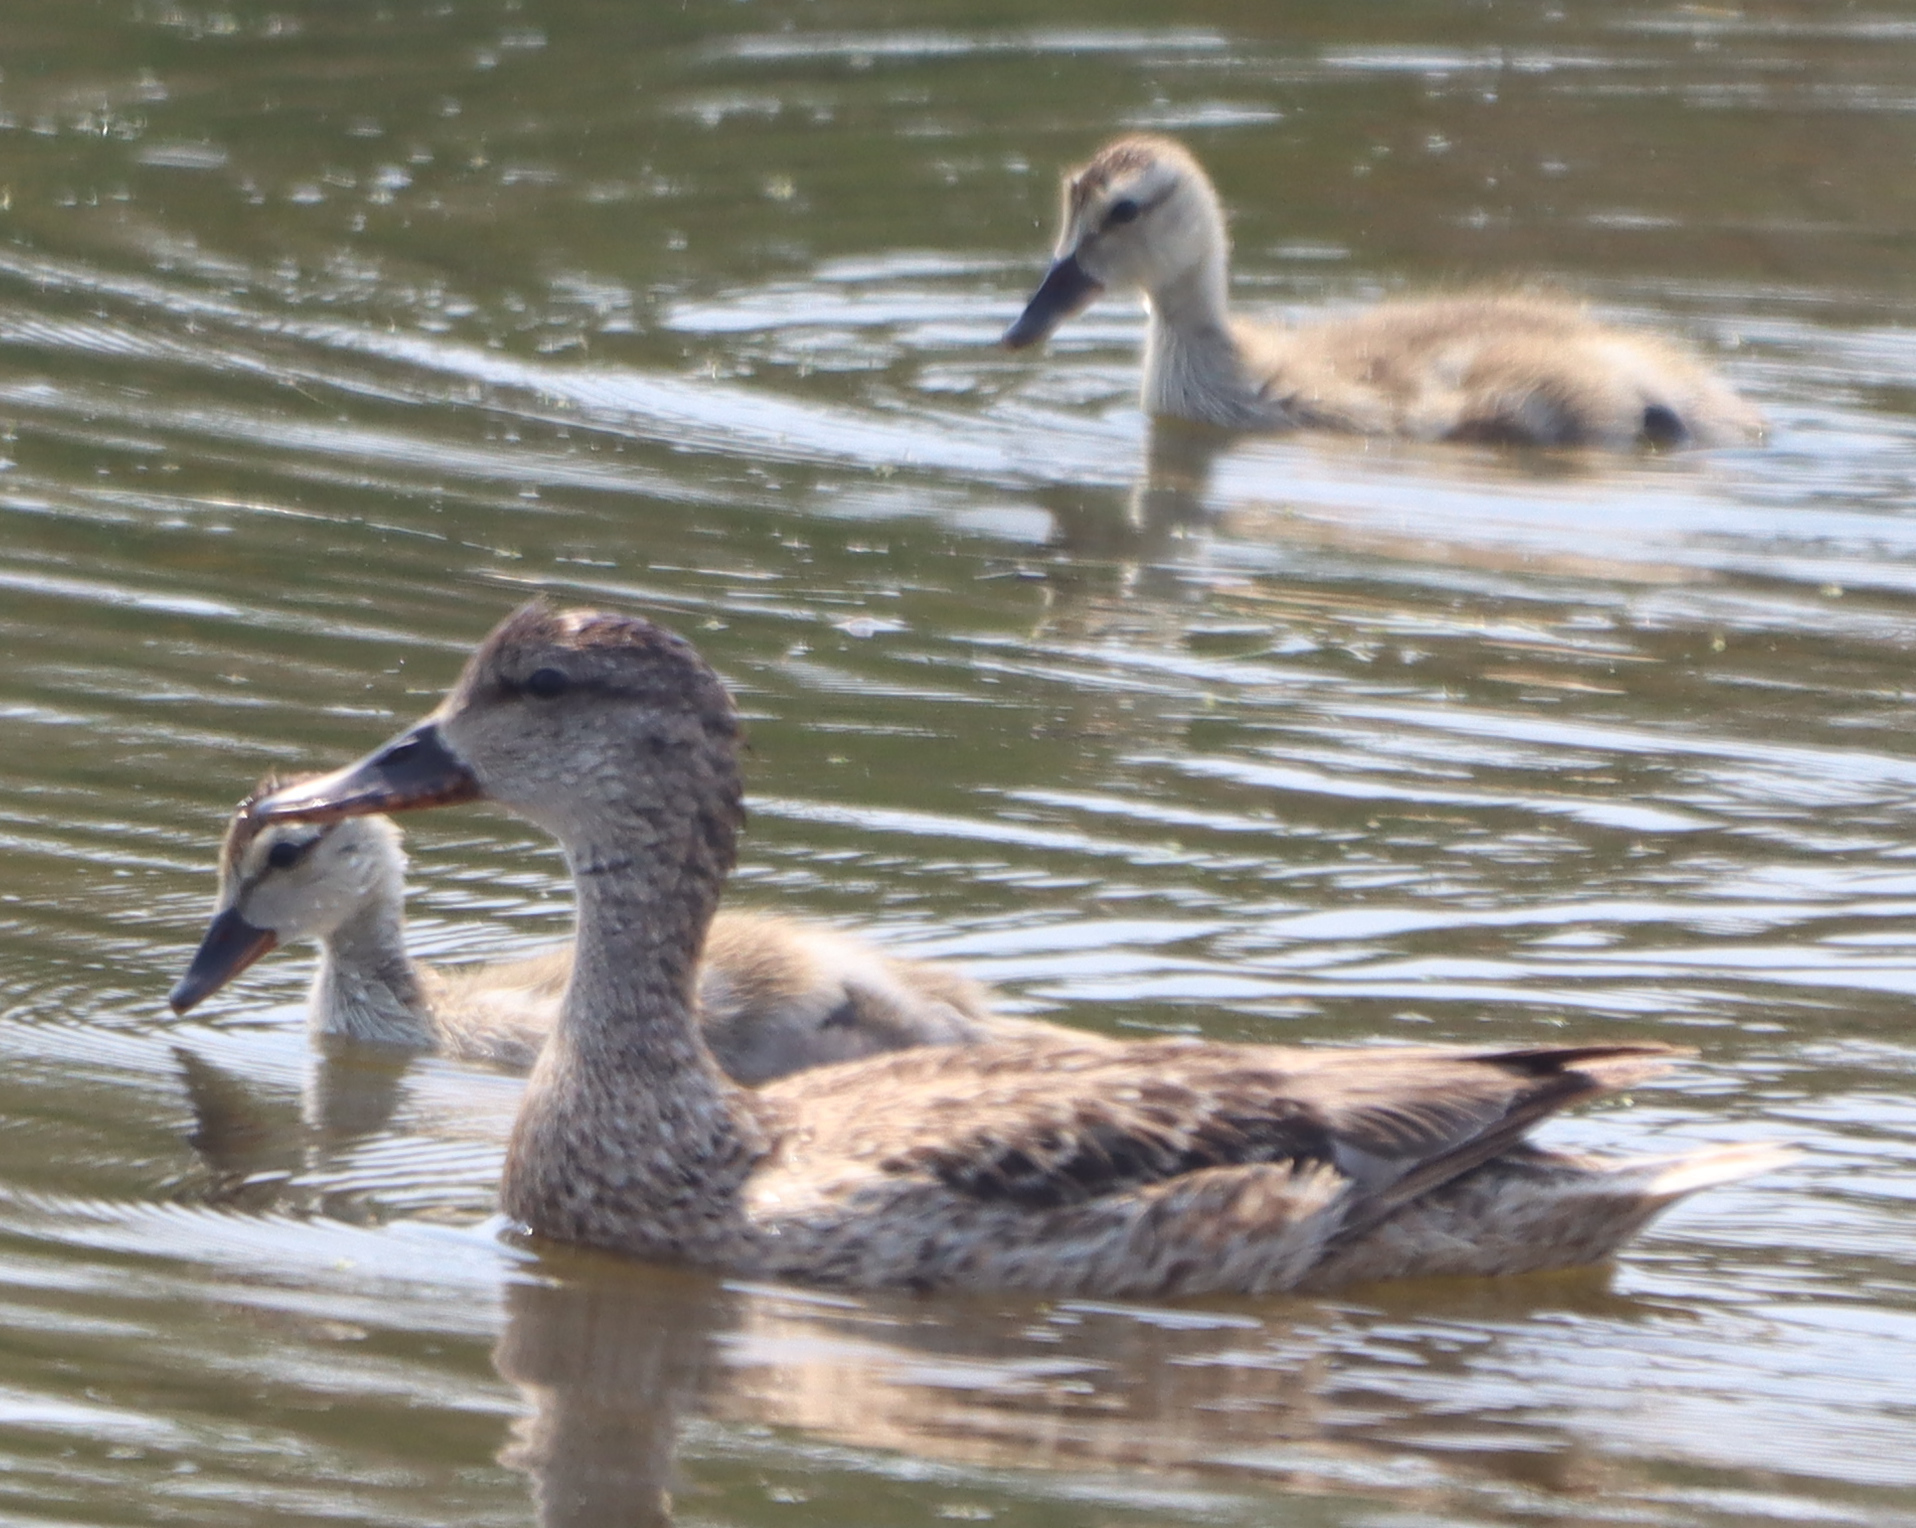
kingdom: Animalia
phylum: Chordata
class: Aves
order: Anseriformes
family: Anatidae
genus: Mareca
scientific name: Mareca strepera
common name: Gadwall
